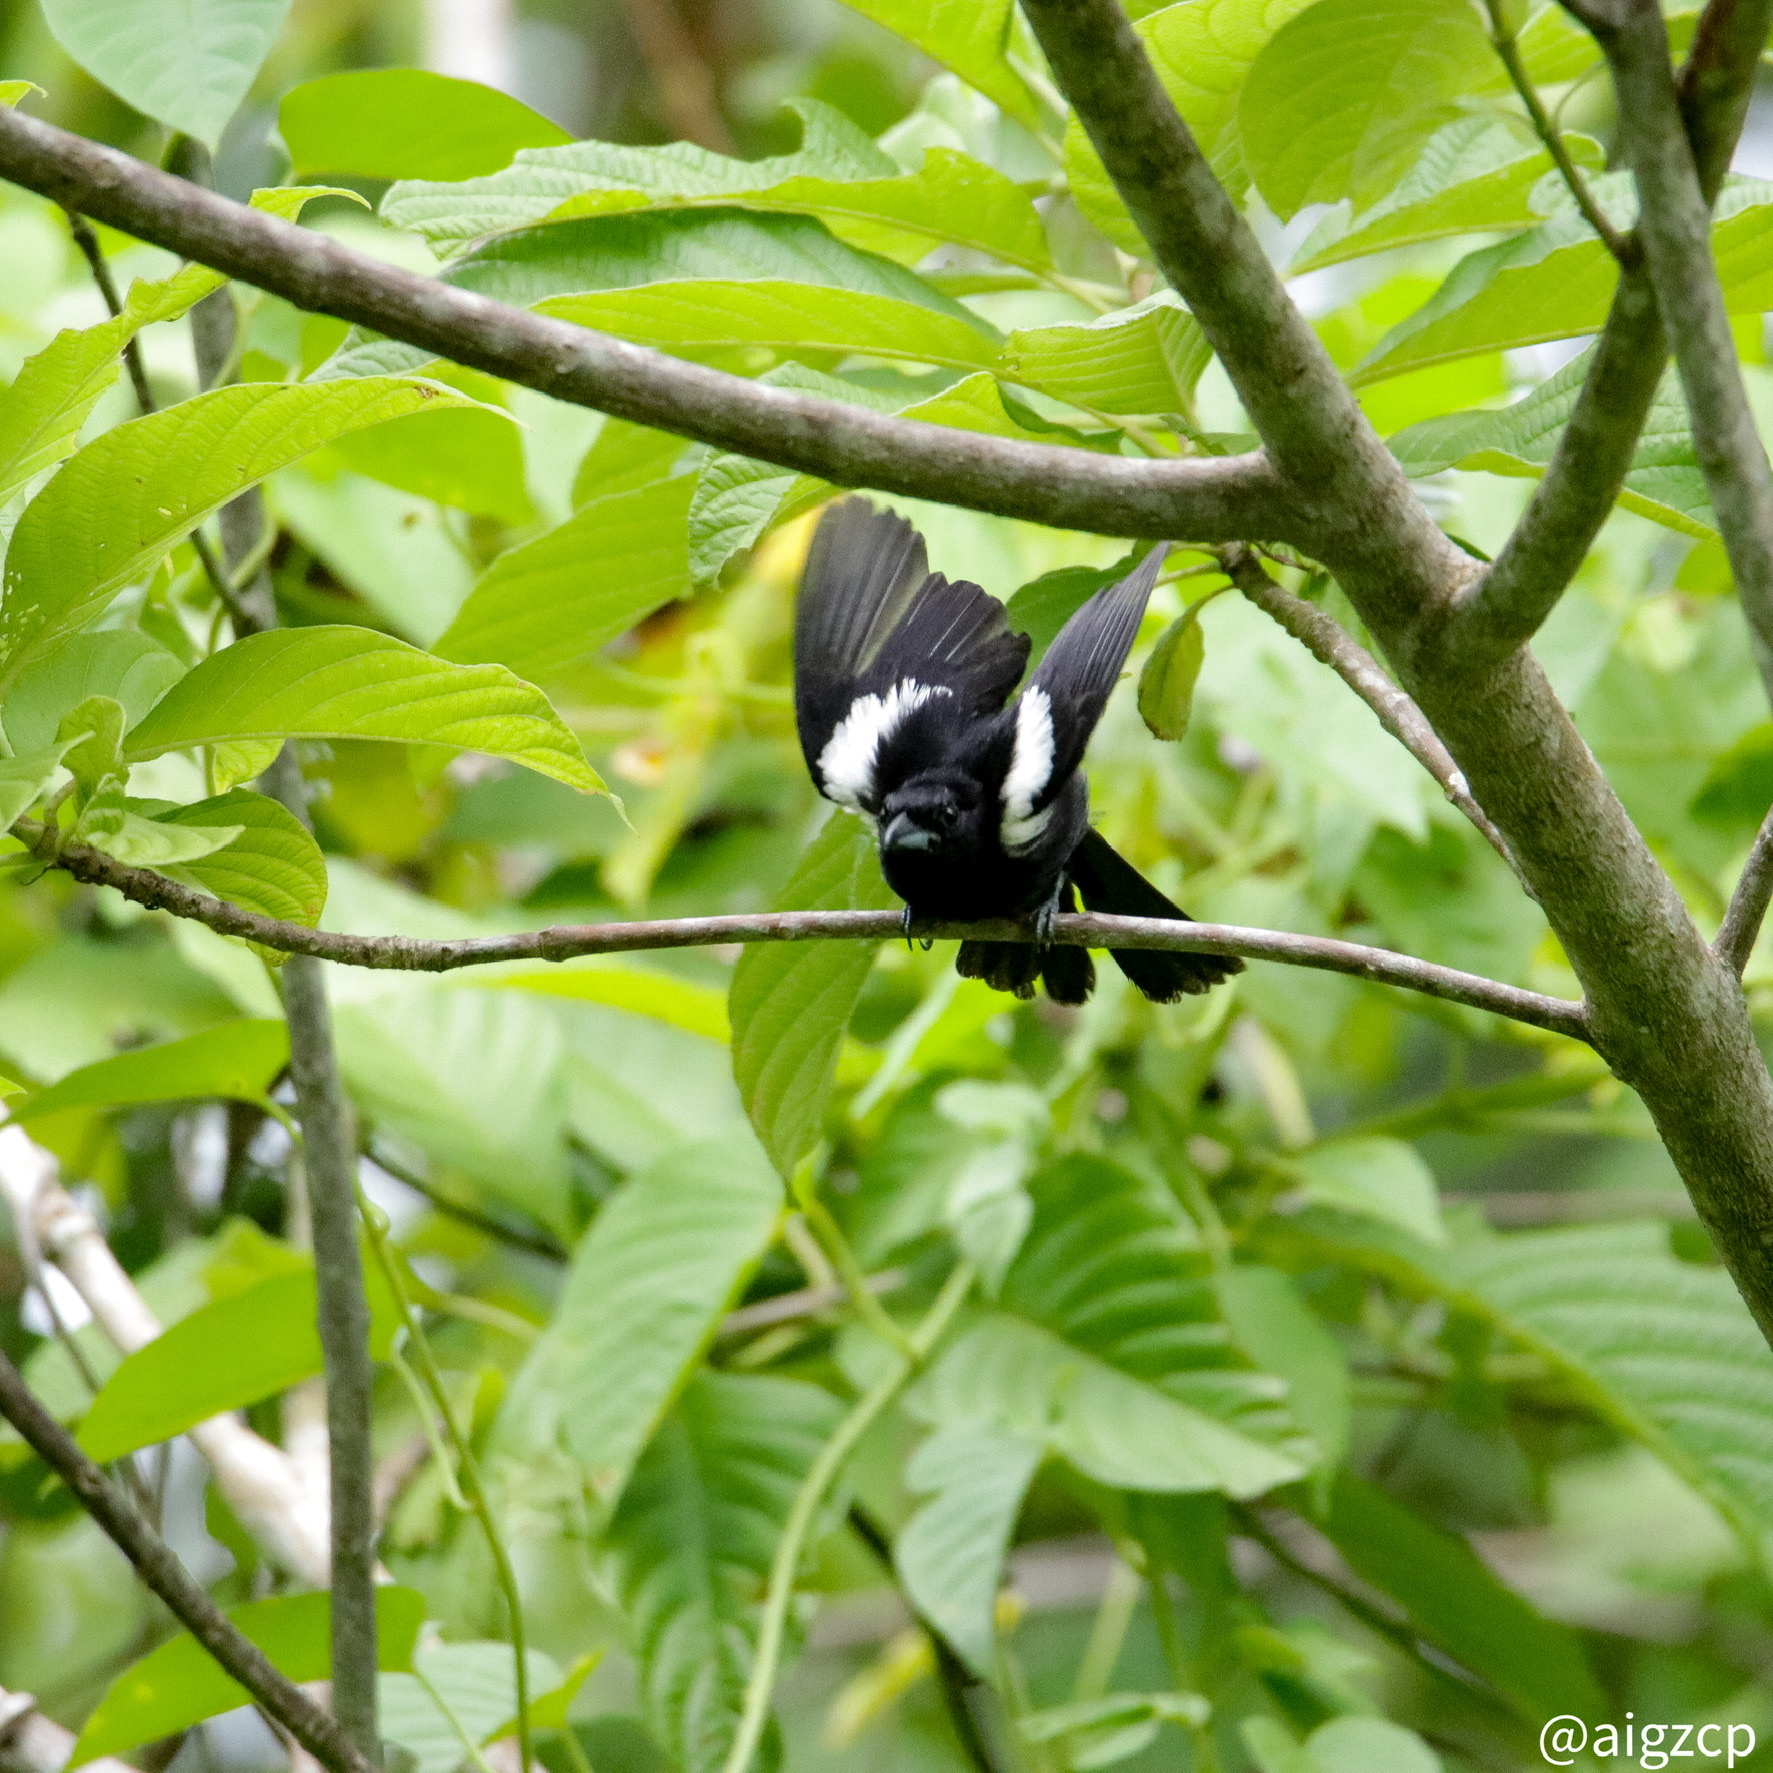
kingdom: Animalia
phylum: Chordata
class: Aves
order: Passeriformes
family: Thraupidae
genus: Loriotus
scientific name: Loriotus luctuosus
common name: White-shouldered tanager
